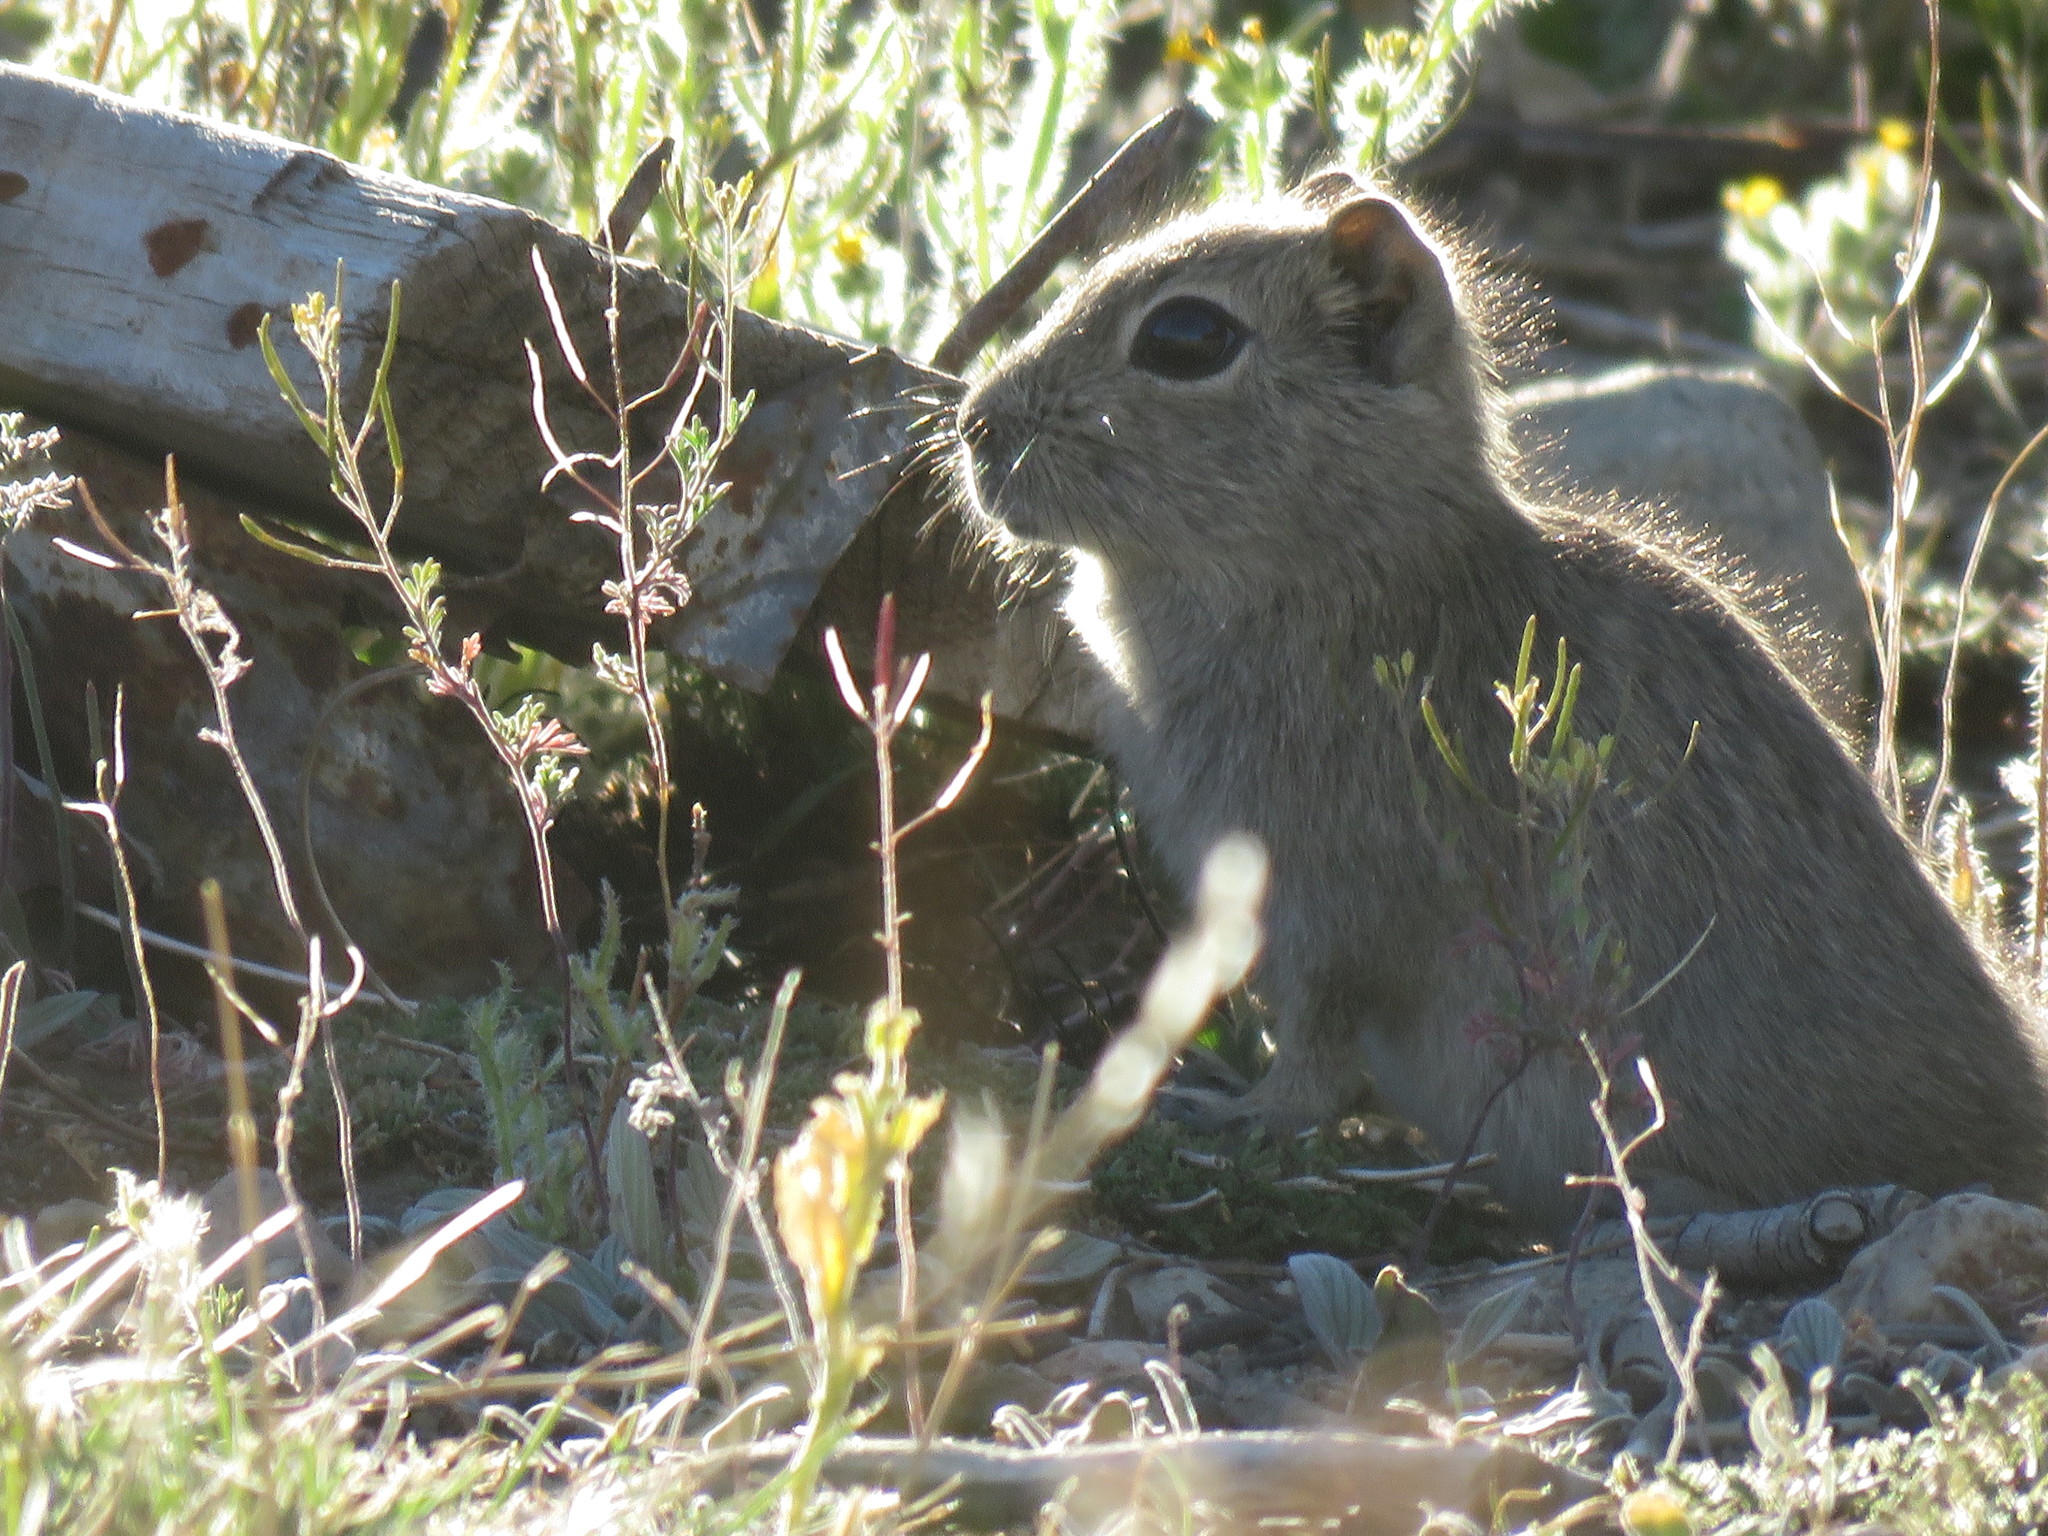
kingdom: Animalia
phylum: Chordata
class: Mammalia
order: Rodentia
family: Caviidae
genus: Microcavia
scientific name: Microcavia australis
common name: Southern mountain cavy
